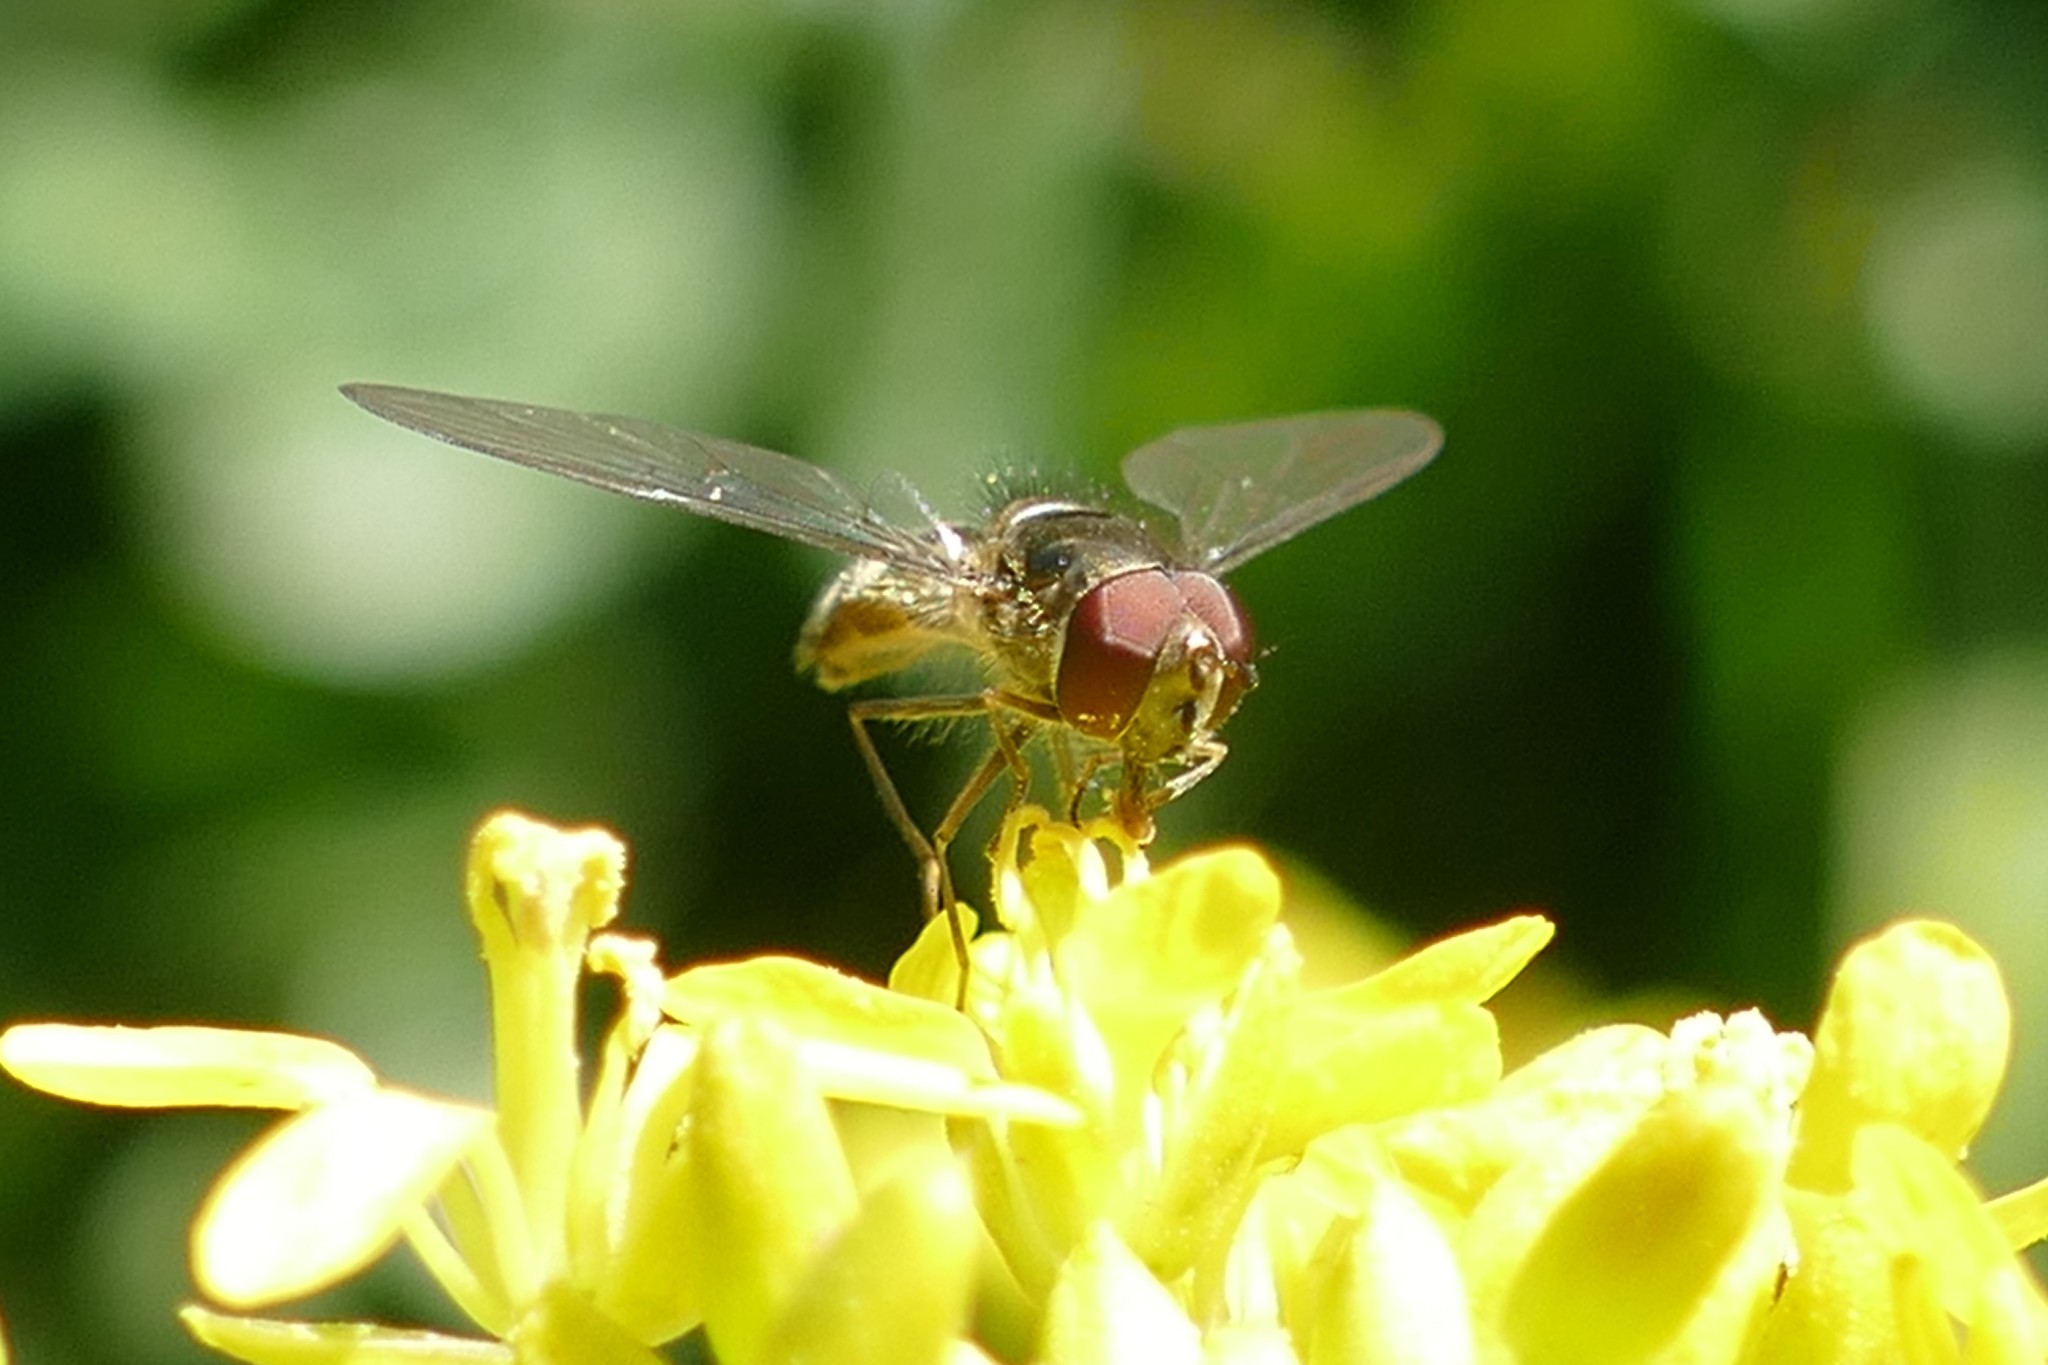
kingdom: Animalia
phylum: Arthropoda
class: Insecta
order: Diptera
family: Syrphidae
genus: Meliscaeva
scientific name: Meliscaeva auricollis
